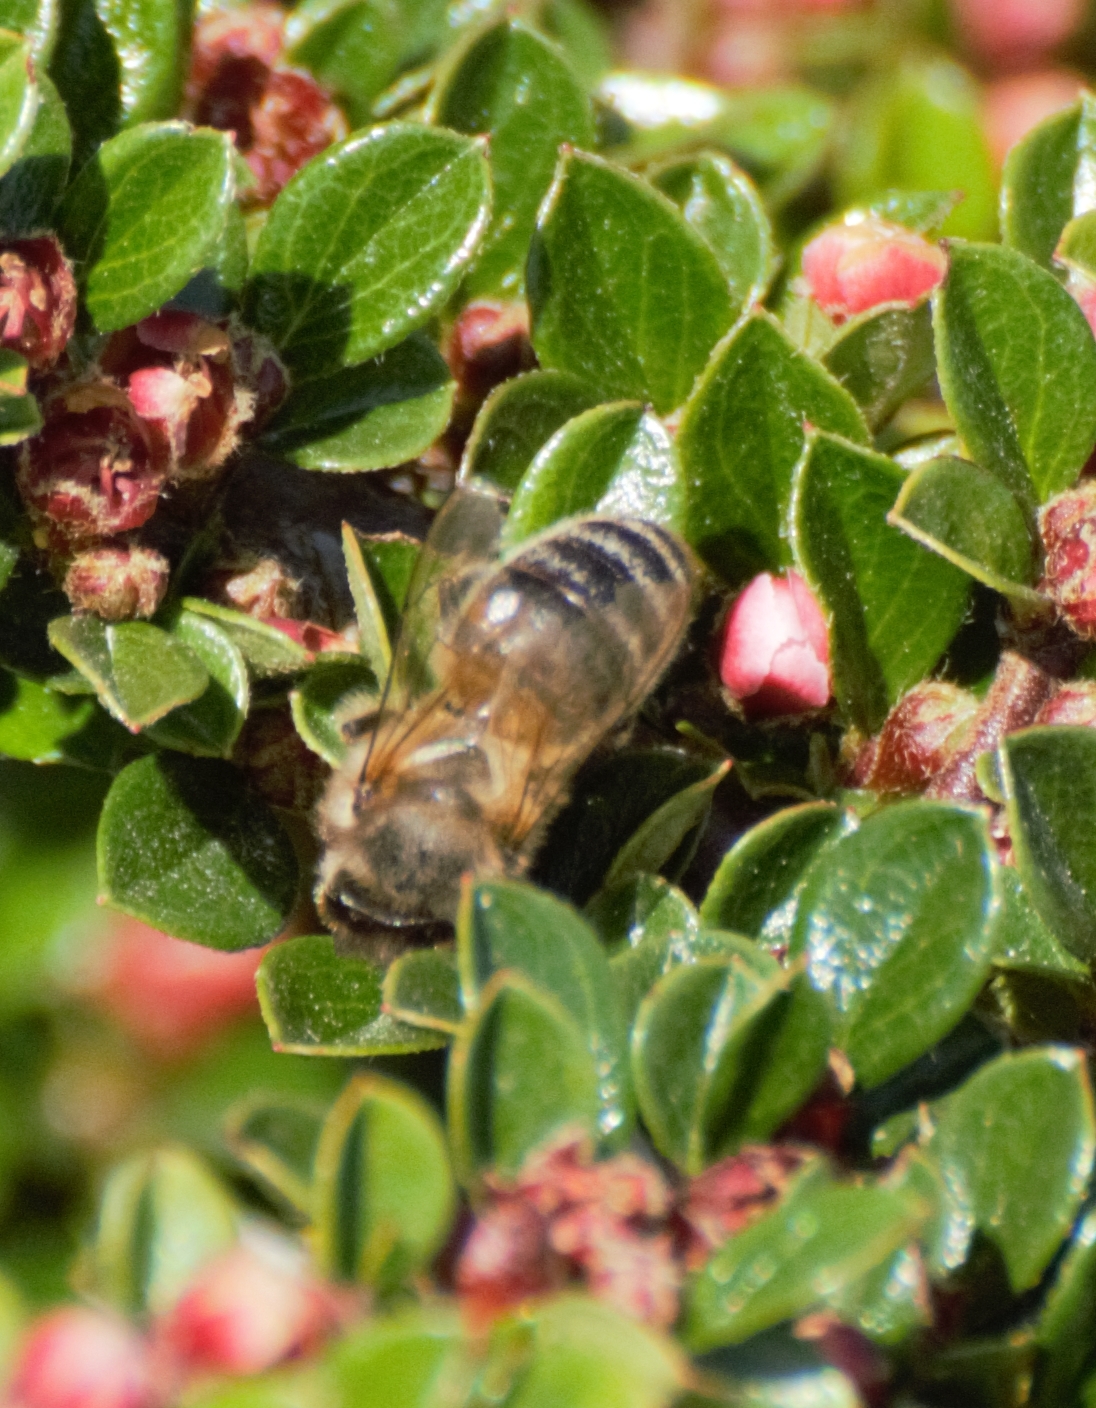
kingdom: Animalia
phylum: Arthropoda
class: Insecta
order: Hymenoptera
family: Apidae
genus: Apis
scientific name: Apis mellifera
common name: Honey bee
